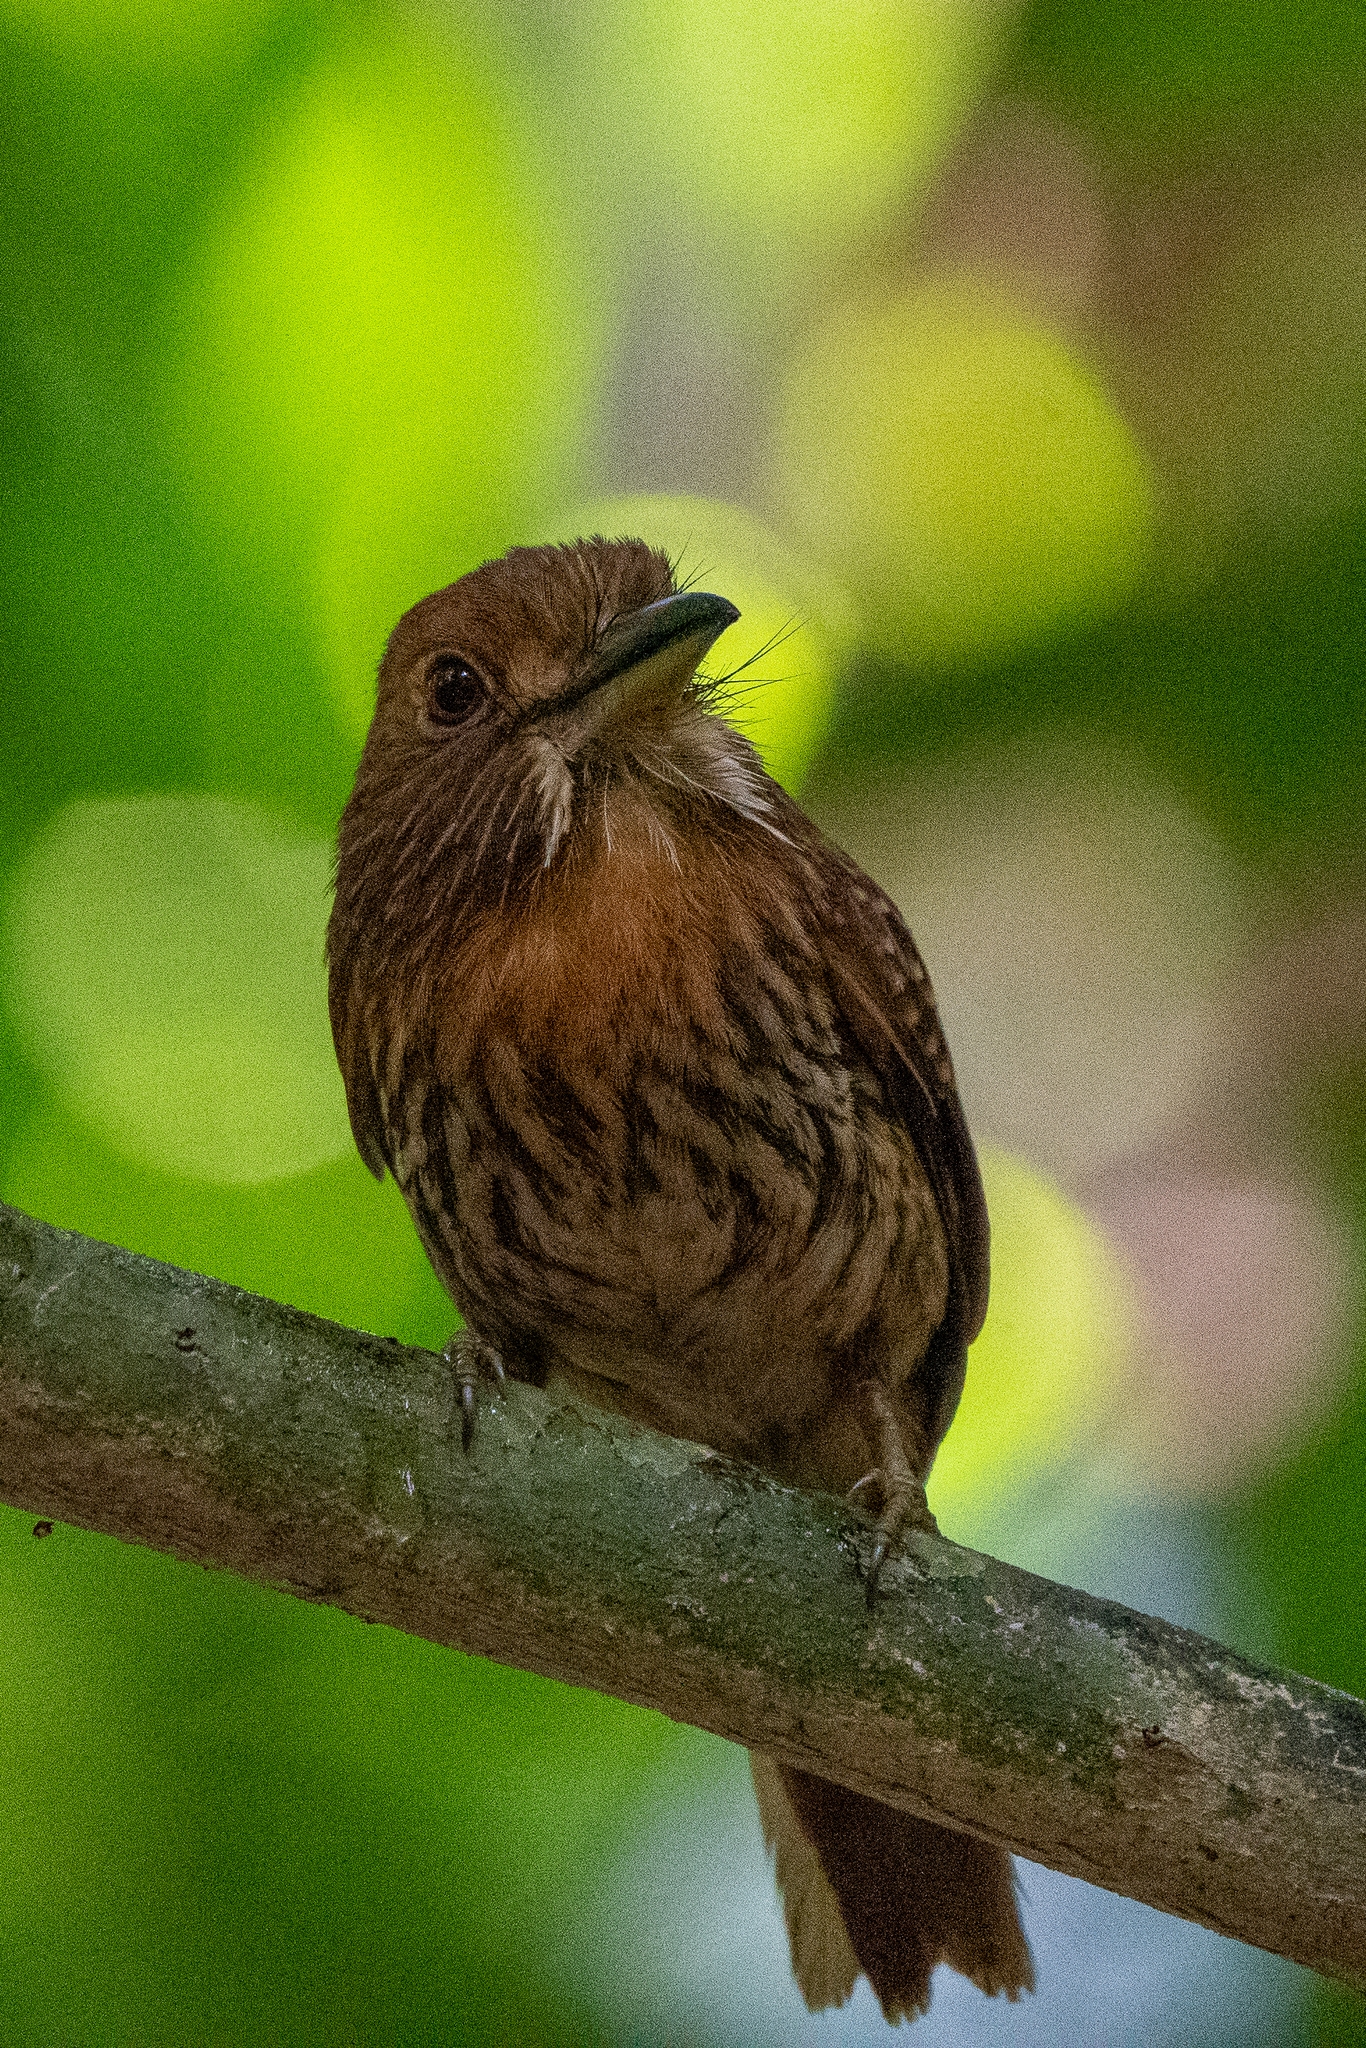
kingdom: Animalia
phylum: Chordata
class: Aves
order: Piciformes
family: Bucconidae
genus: Malacoptila
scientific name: Malacoptila panamensis
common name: White-whiskered puffbird
